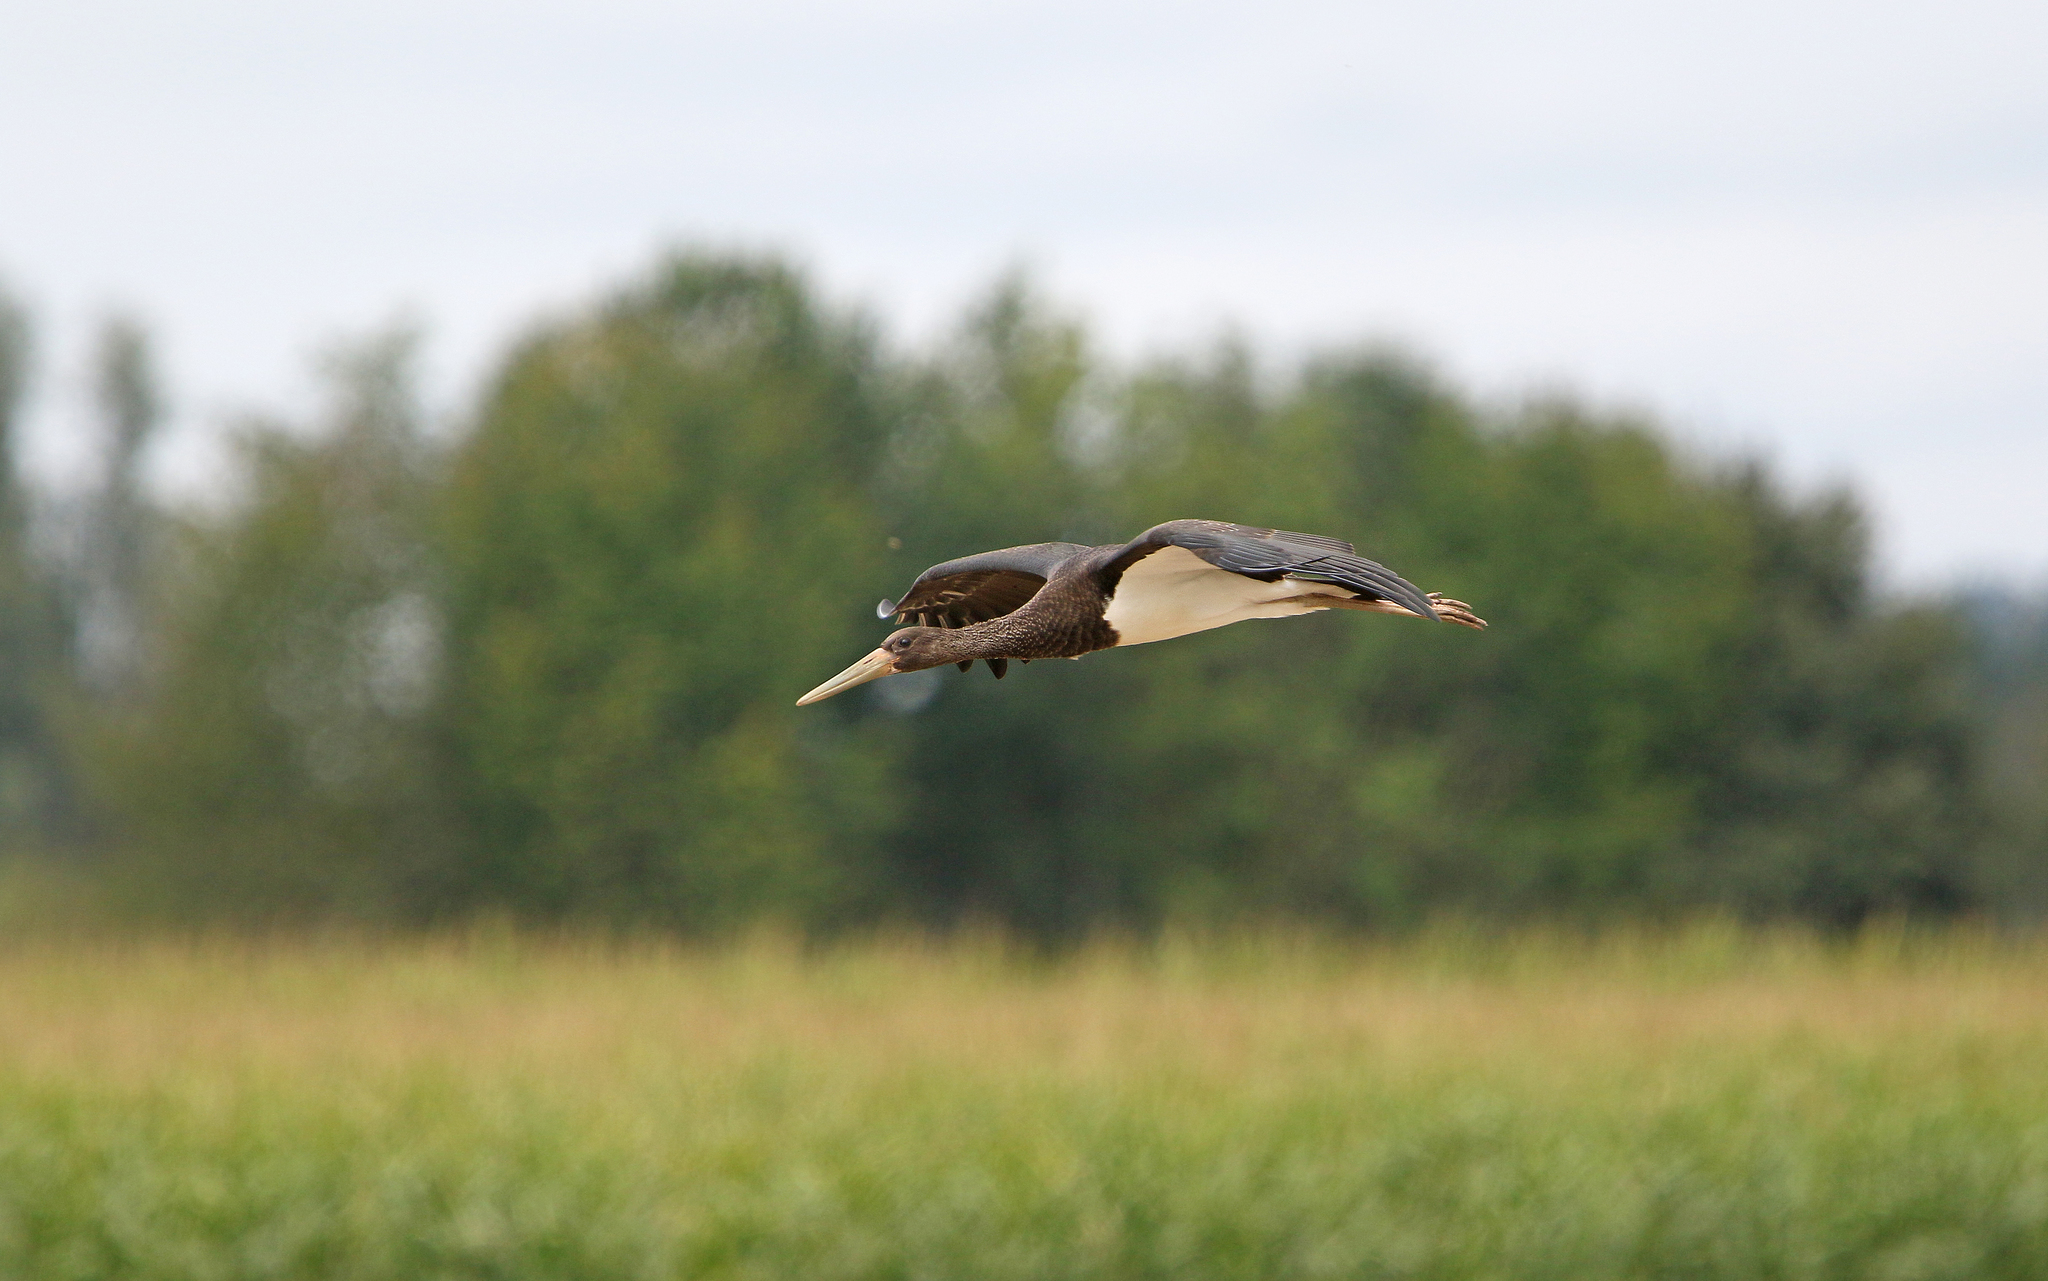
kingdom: Animalia
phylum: Chordata
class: Aves
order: Ciconiiformes
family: Ciconiidae
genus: Ciconia
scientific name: Ciconia nigra
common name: Black stork
